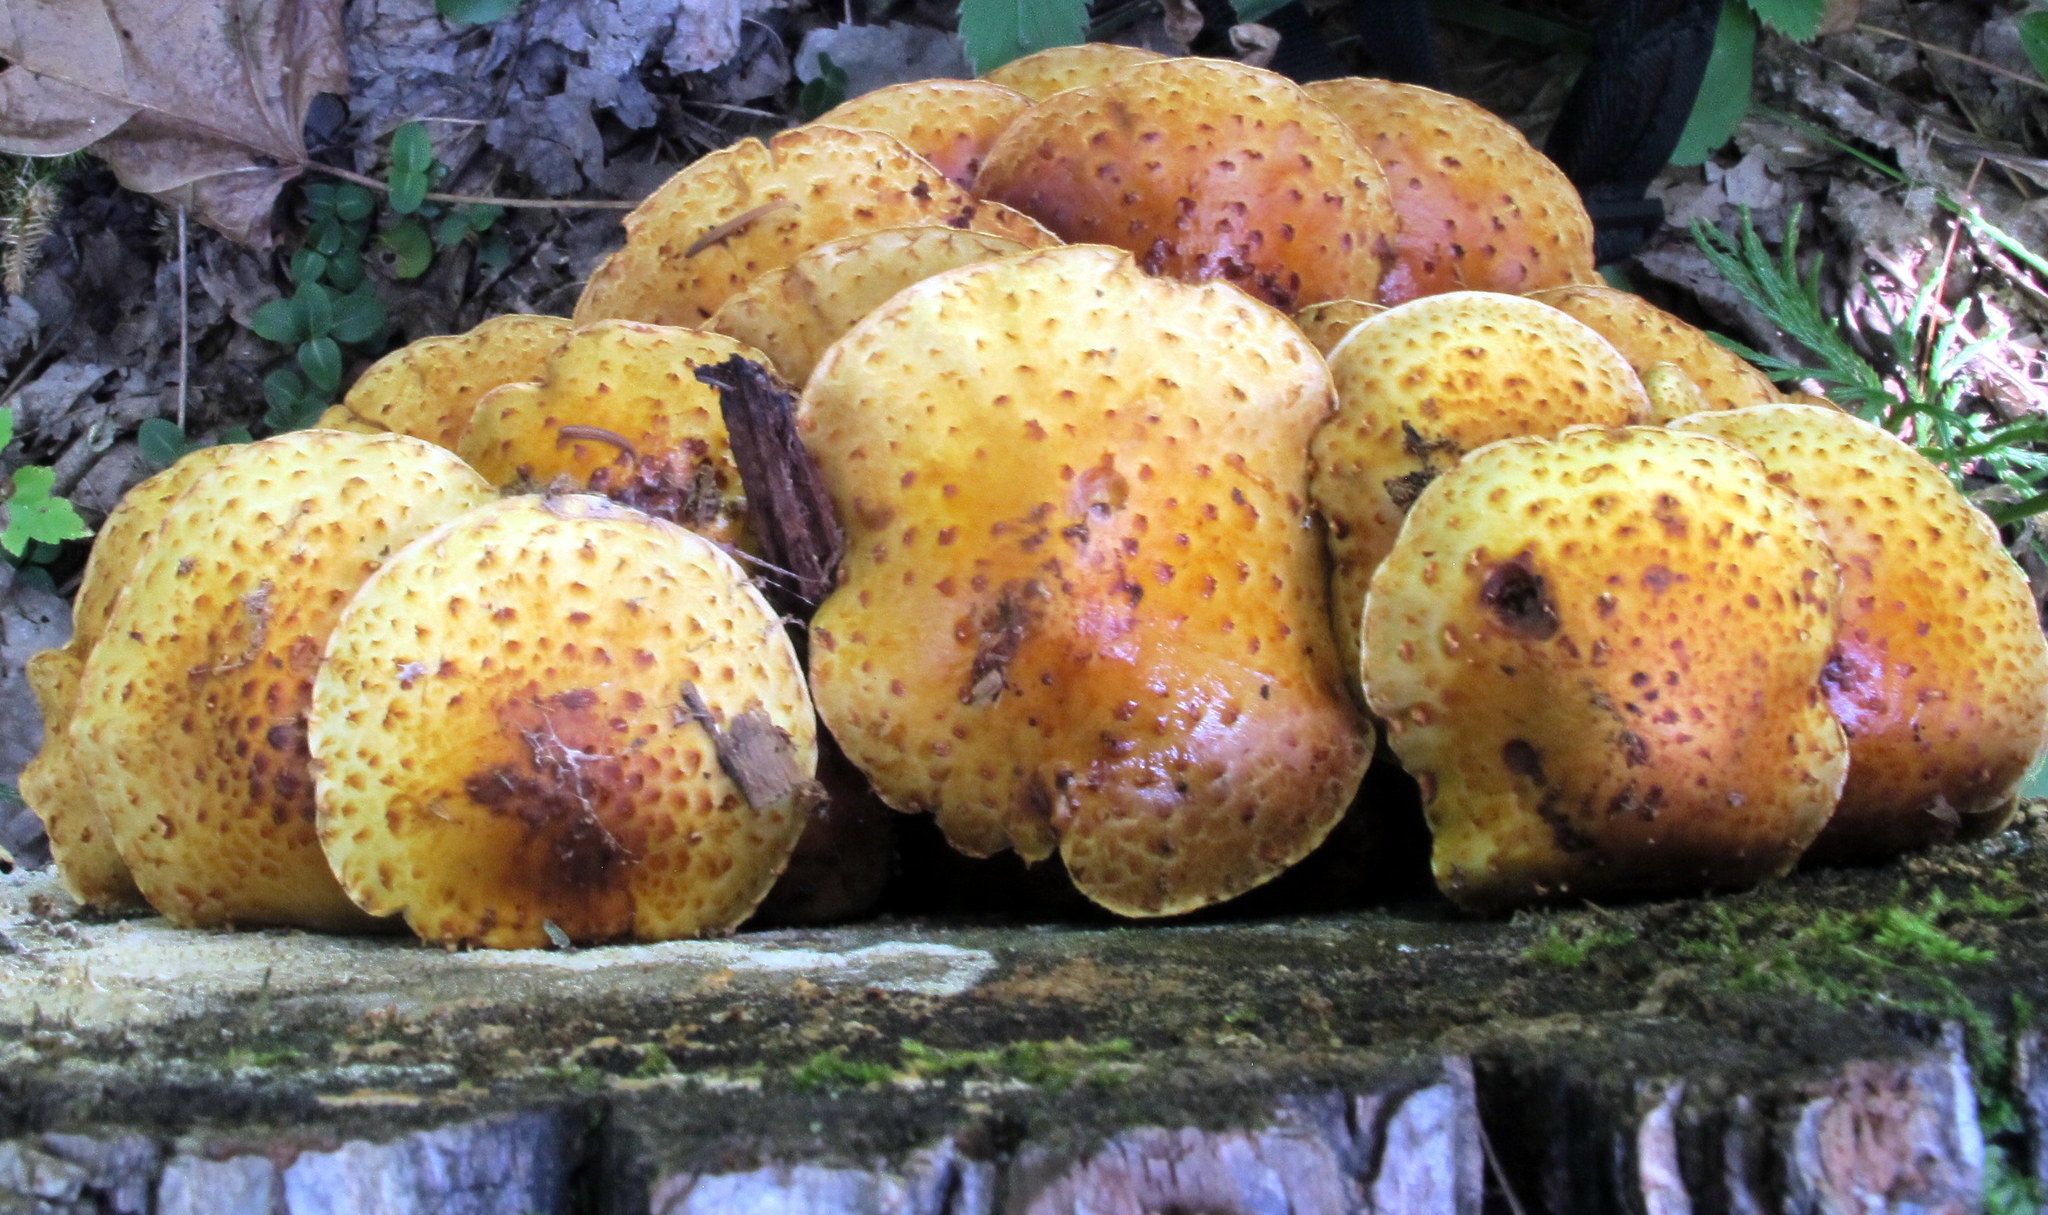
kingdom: Fungi
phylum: Basidiomycota
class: Agaricomycetes
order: Agaricales
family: Strophariaceae
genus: Pholiota
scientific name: Pholiota squarrosoides
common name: Sharp-scaly pholiota
